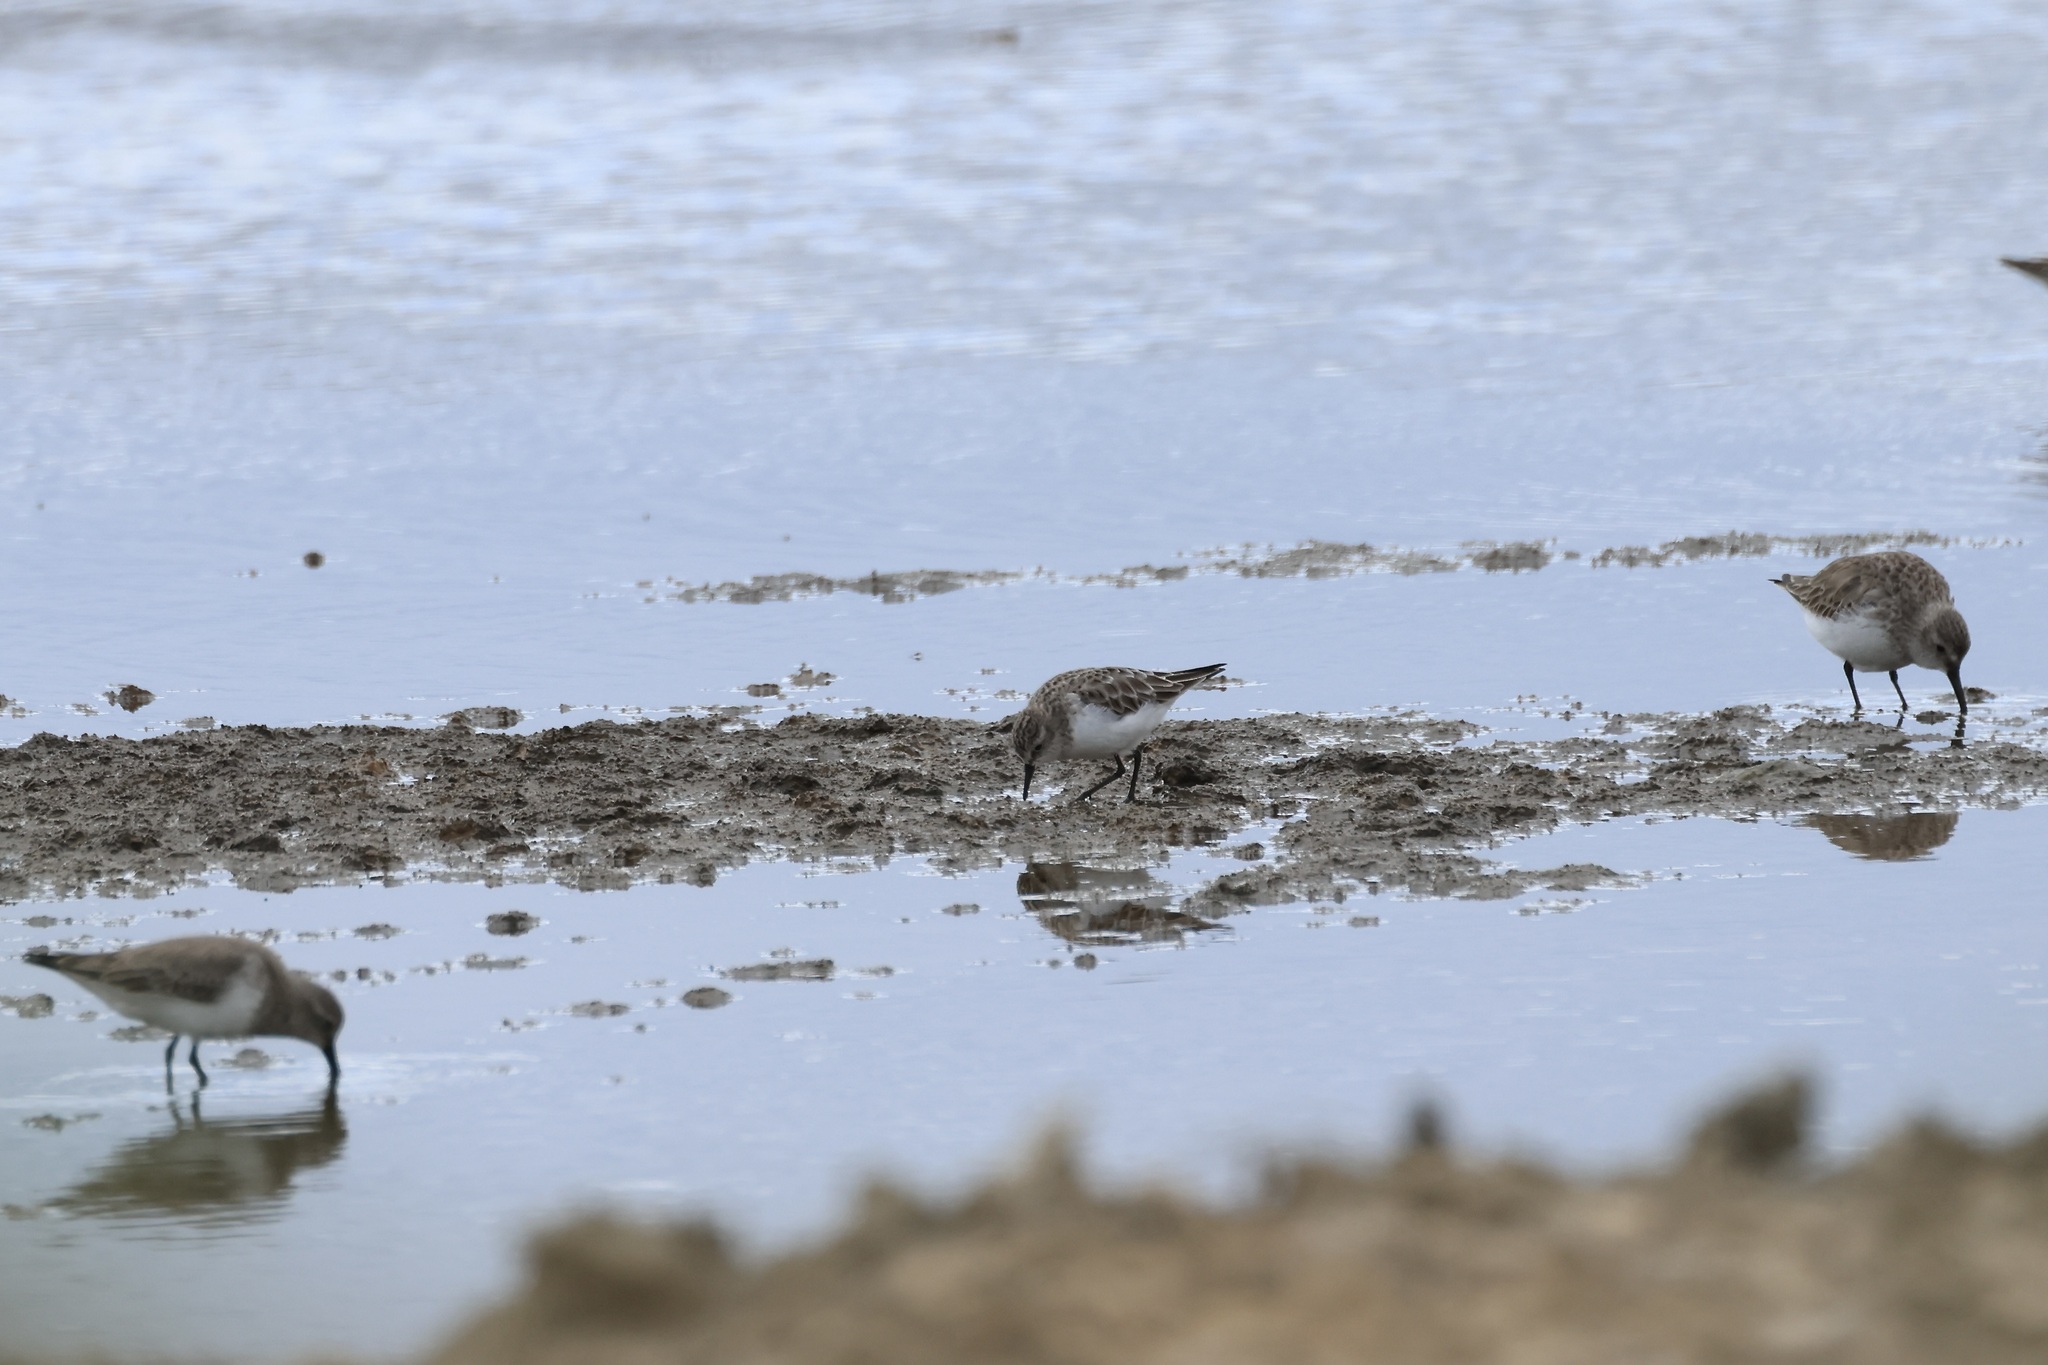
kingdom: Animalia
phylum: Chordata
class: Aves
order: Charadriiformes
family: Scolopacidae
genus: Calidris
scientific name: Calidris minuta
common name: Little stint
